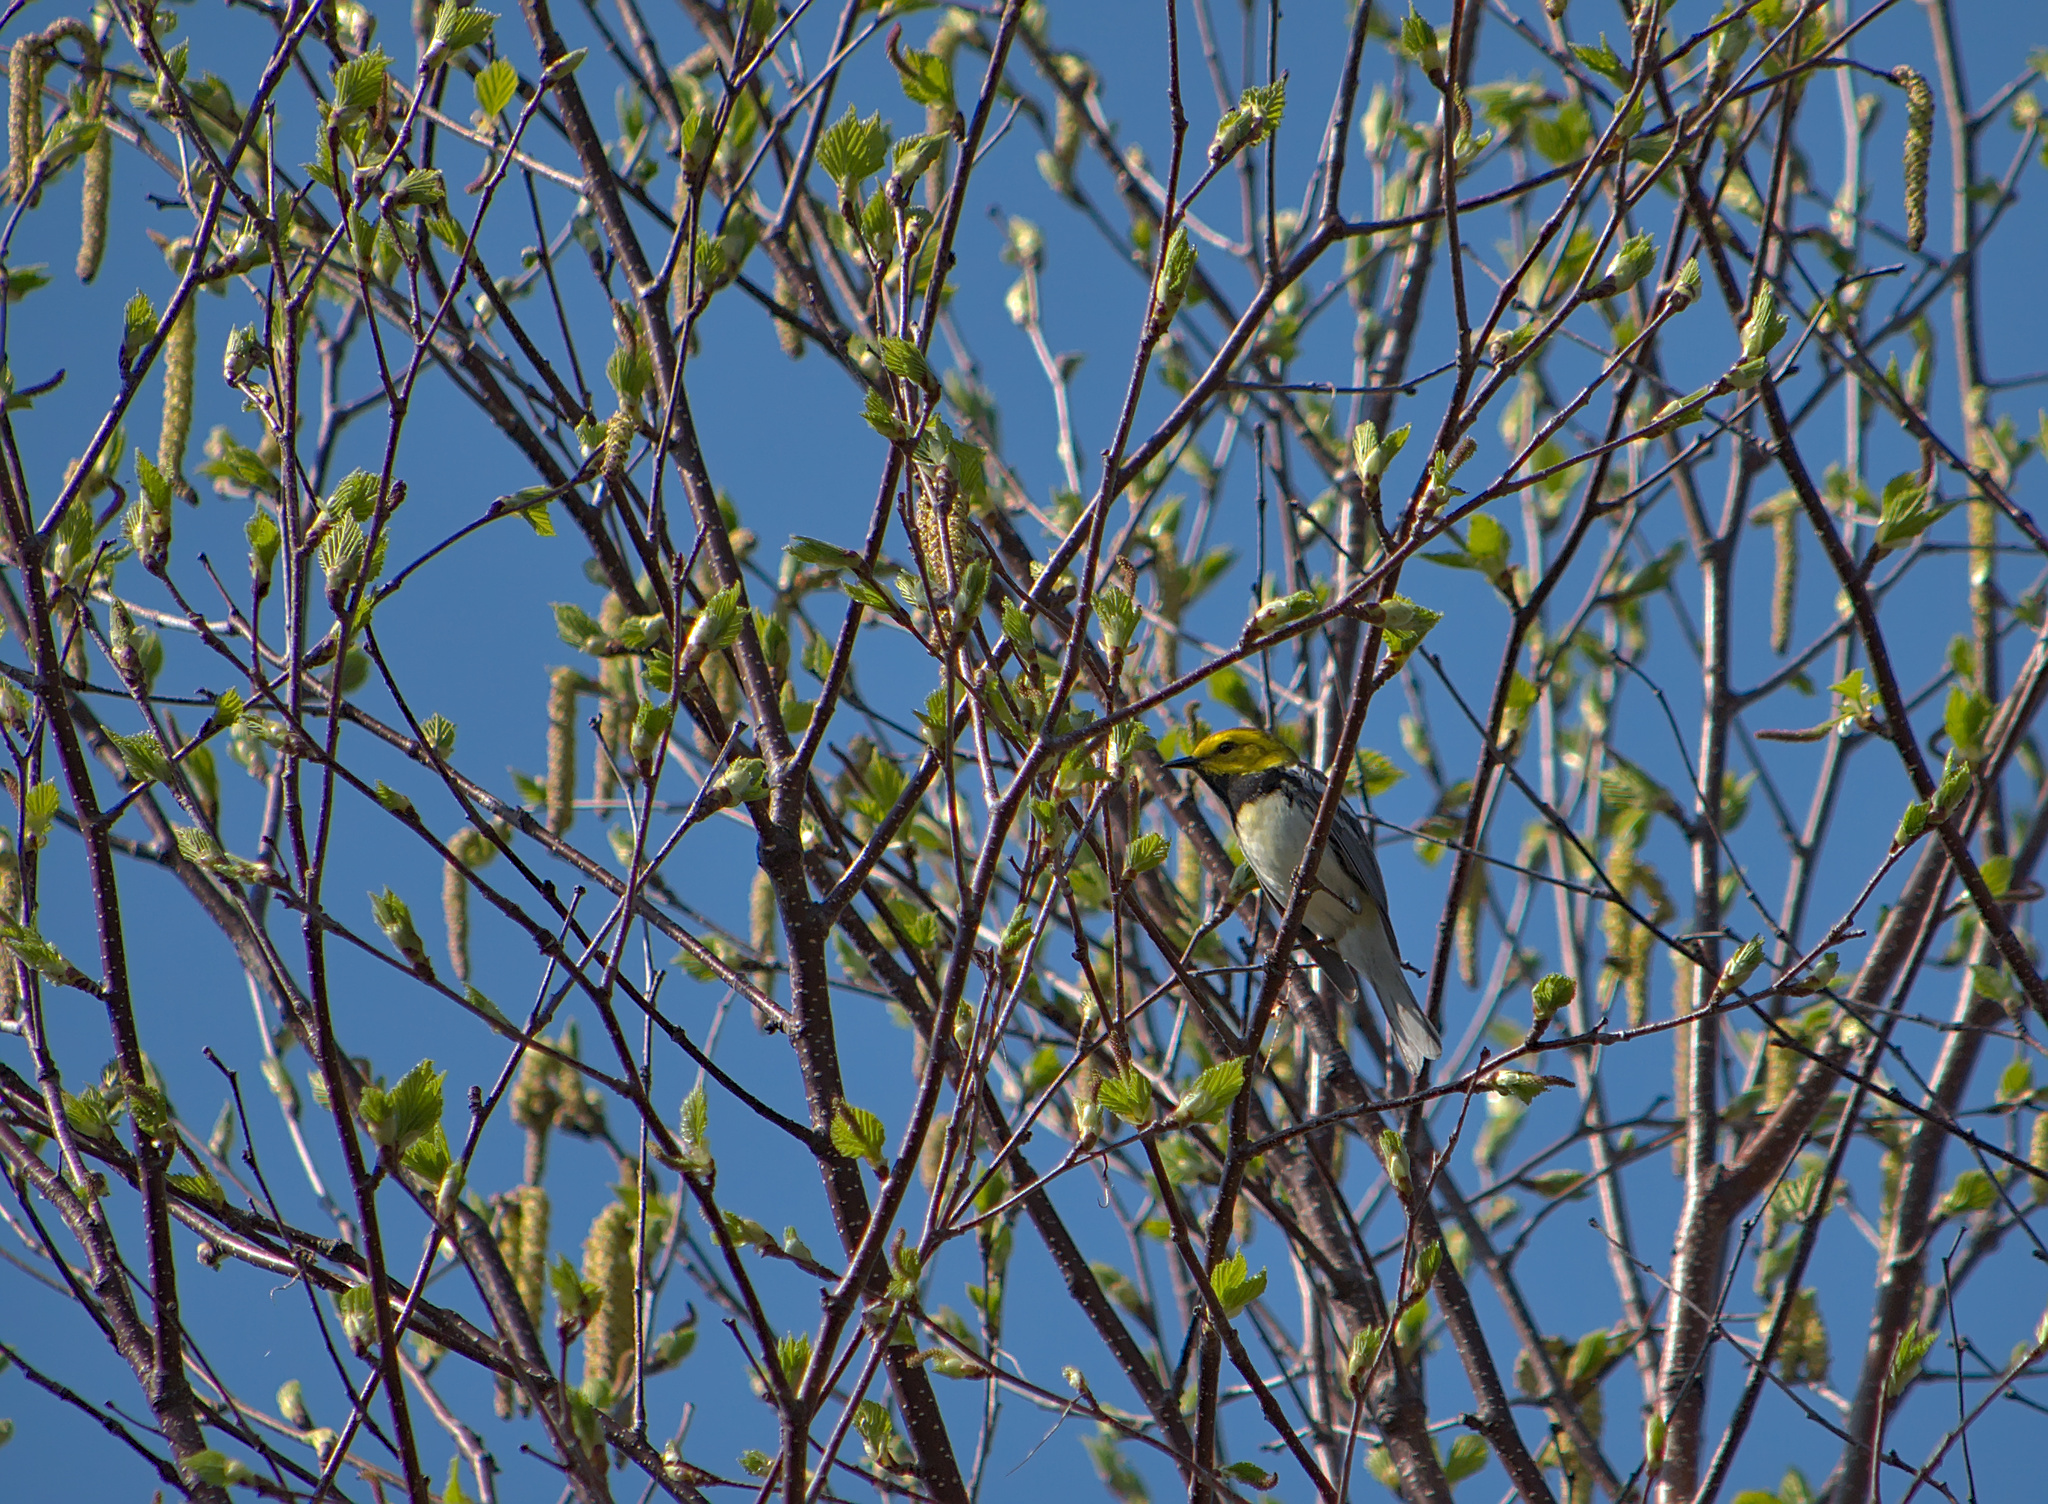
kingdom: Animalia
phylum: Chordata
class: Aves
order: Passeriformes
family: Parulidae
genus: Setophaga
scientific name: Setophaga virens
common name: Black-throated green warbler
